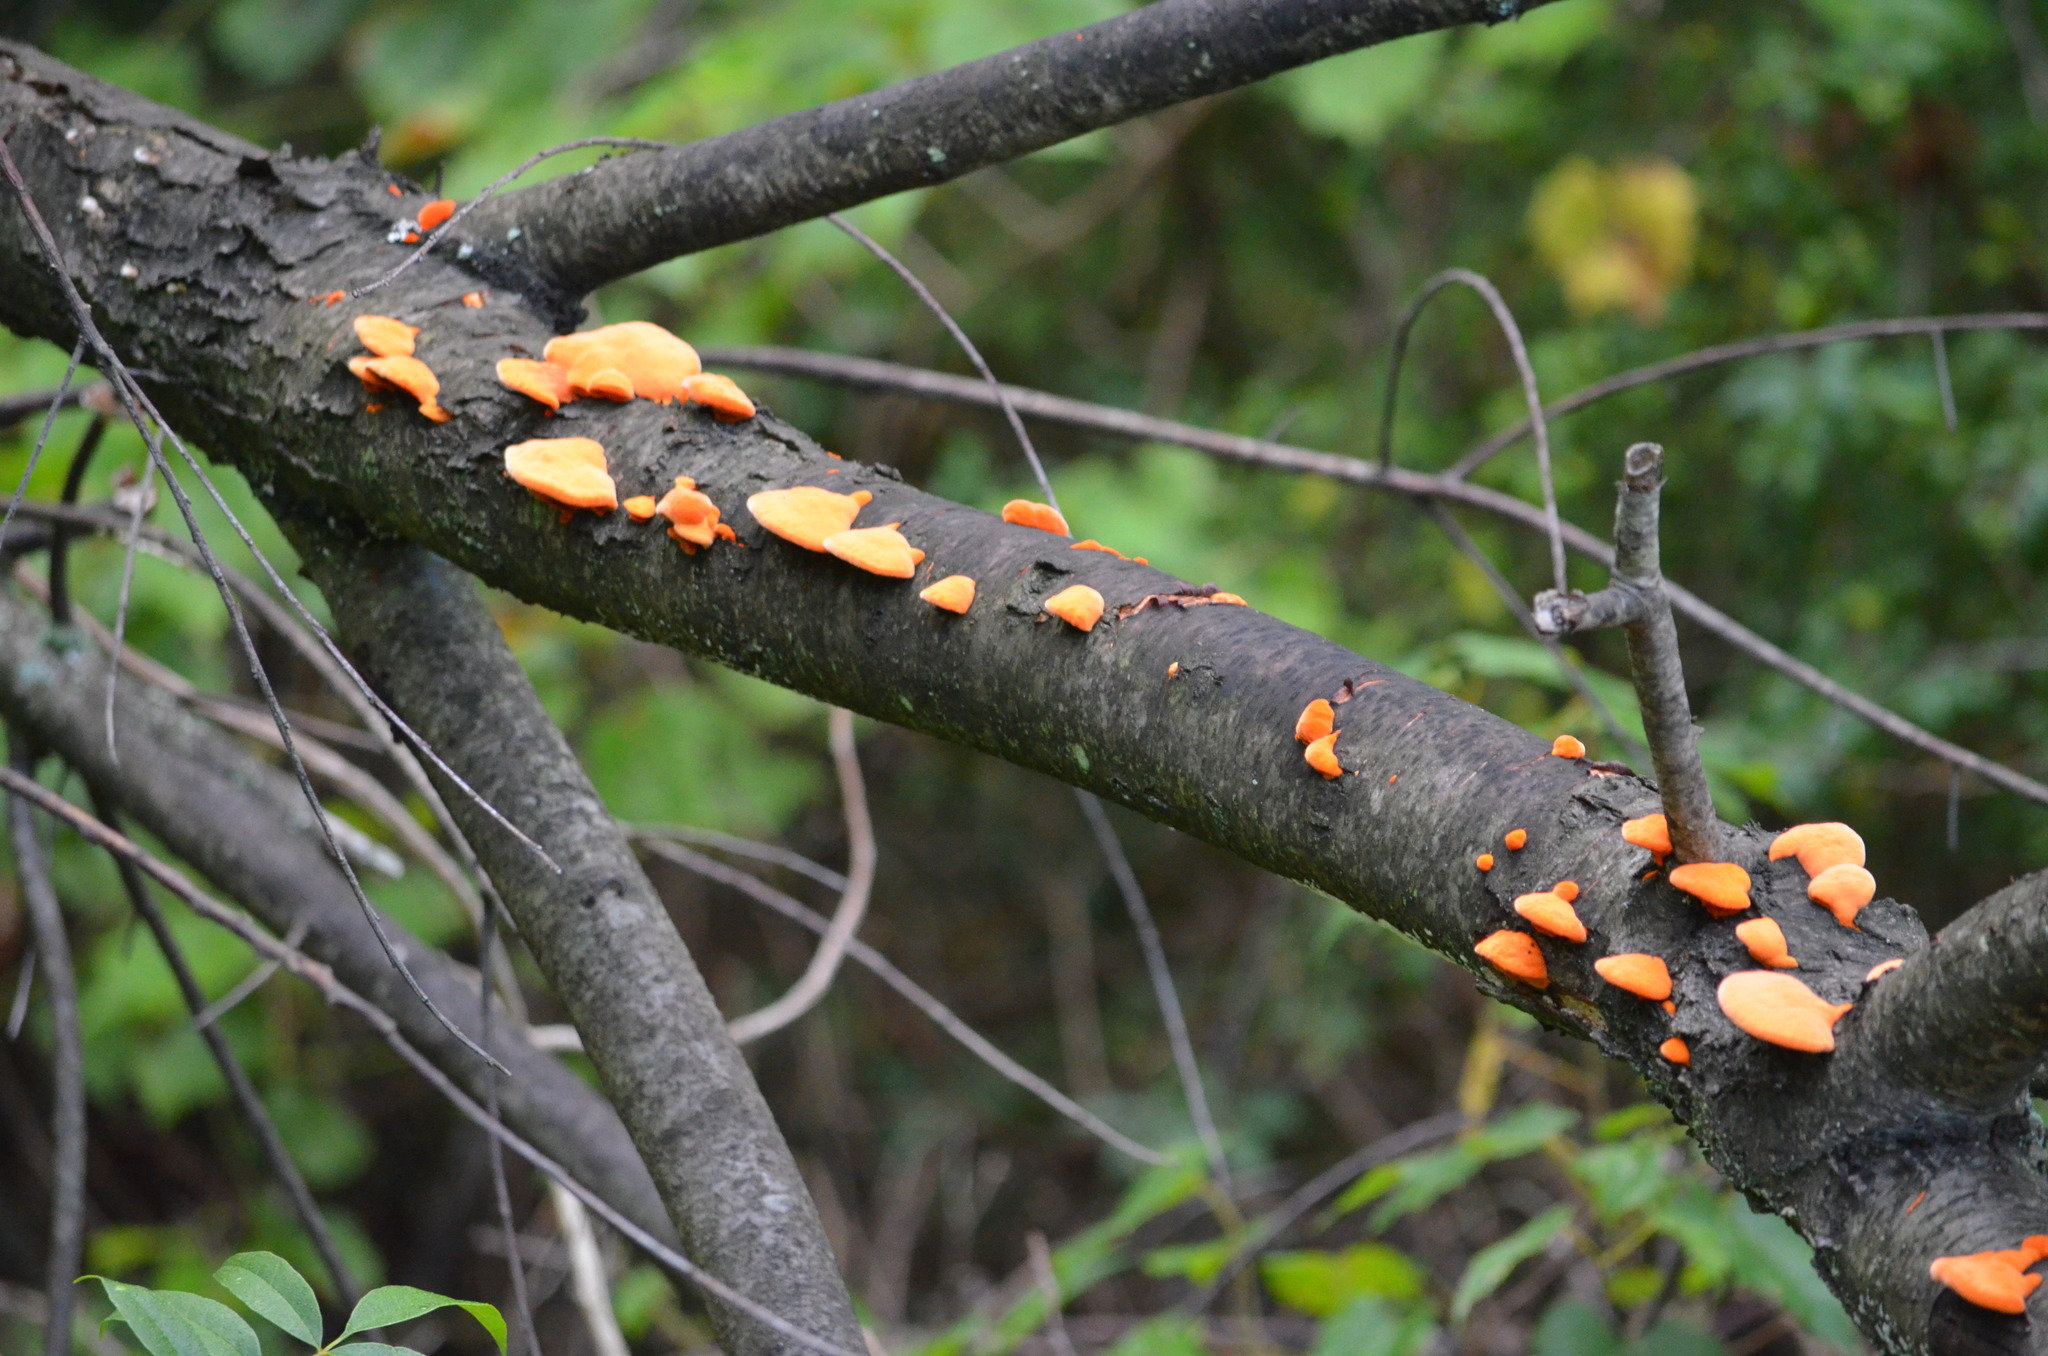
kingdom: Fungi
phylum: Basidiomycota
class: Agaricomycetes
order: Polyporales
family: Polyporaceae
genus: Trametes
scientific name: Trametes cinnabarina
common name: Northern cinnabar polypore
